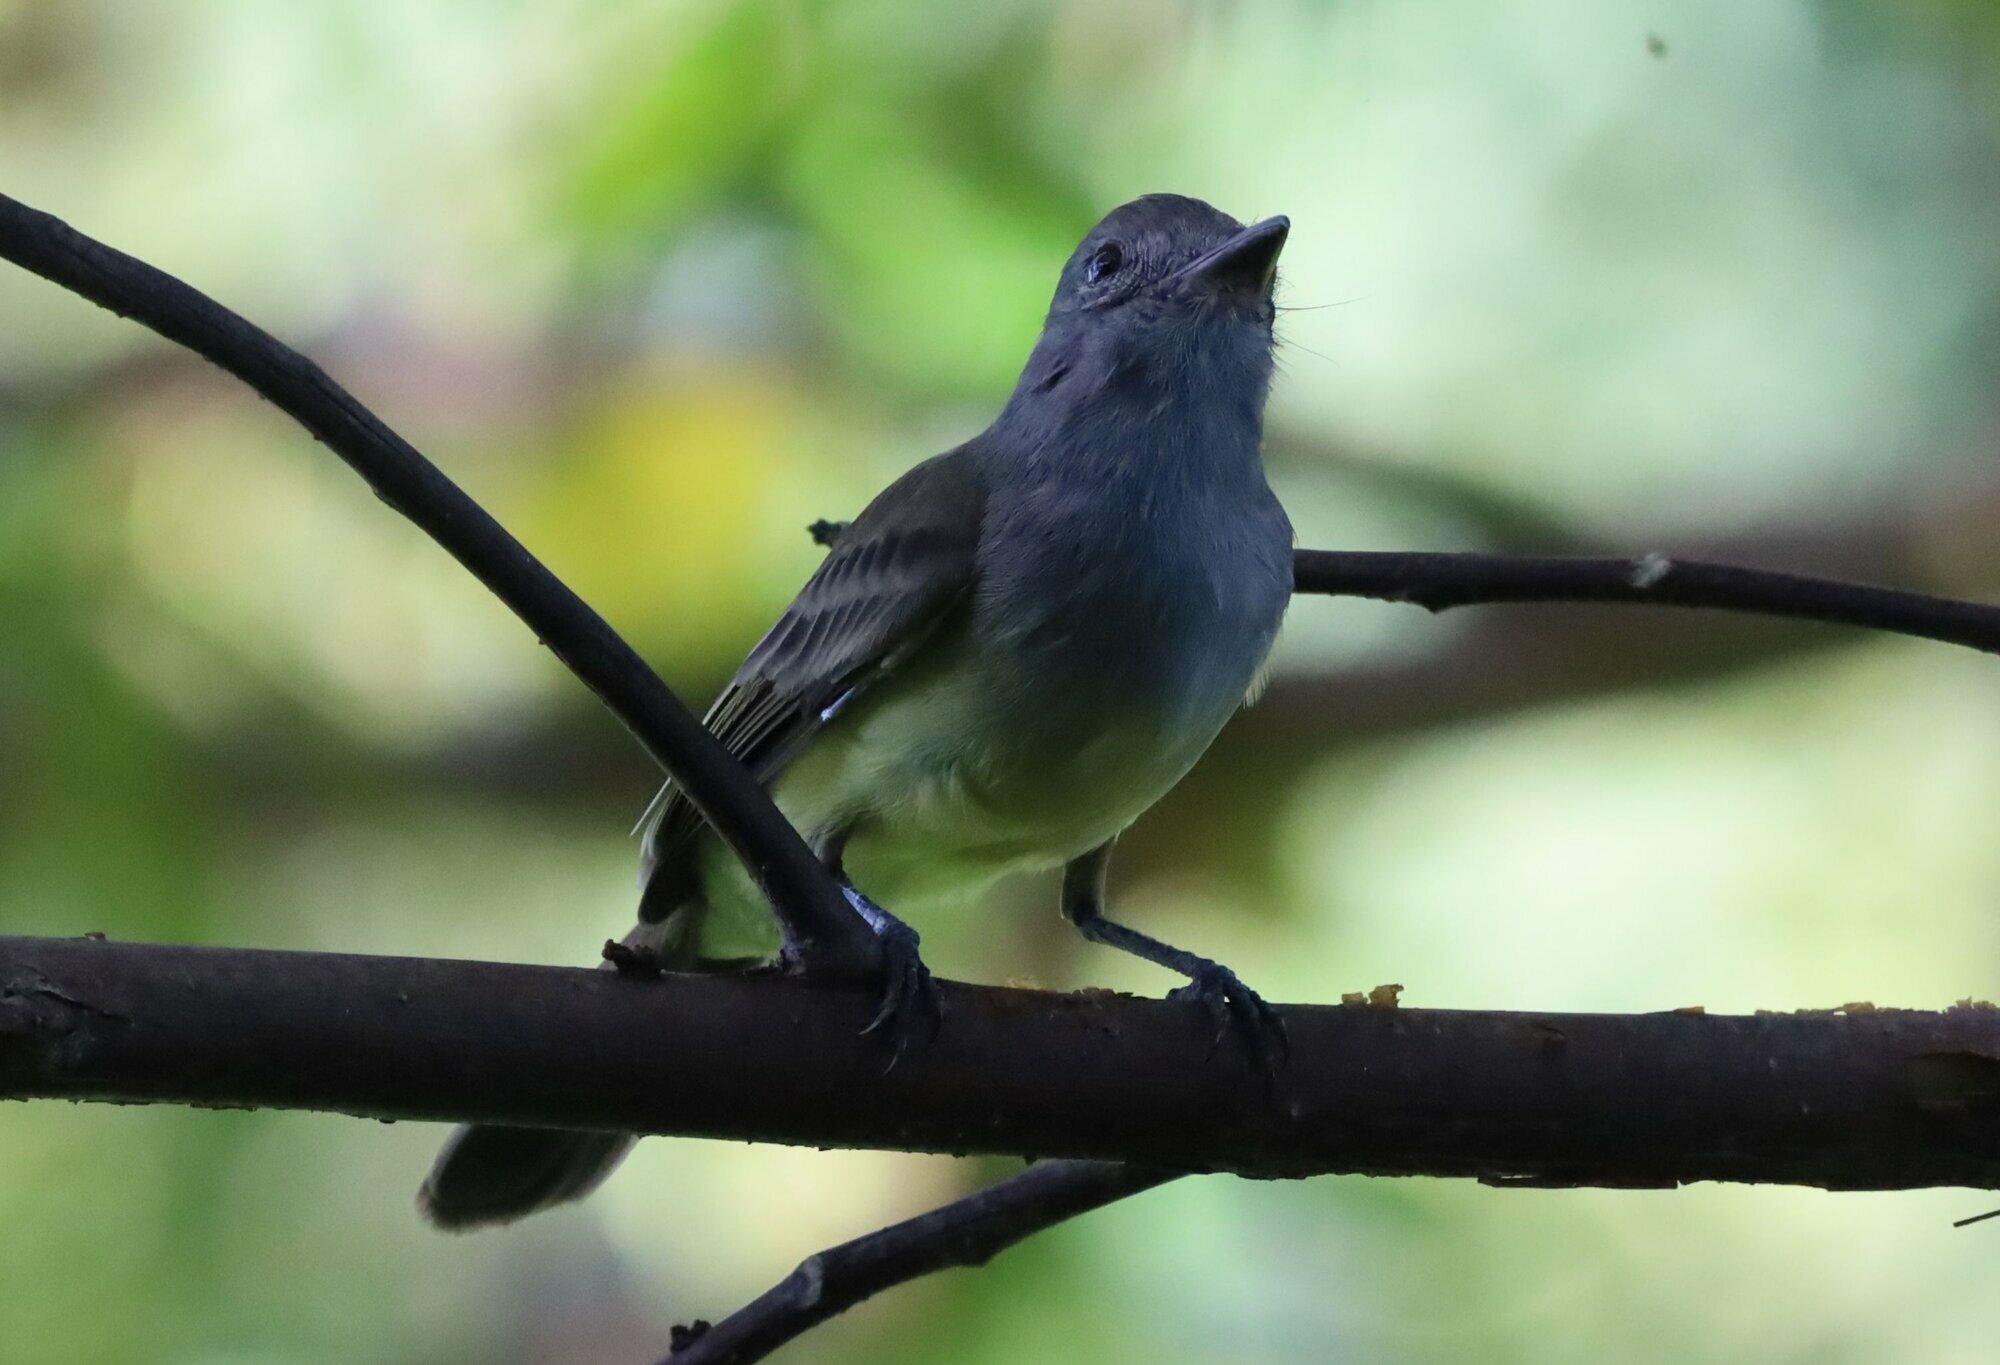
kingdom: Animalia
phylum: Chordata
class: Aves
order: Passeriformes
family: Tyrannidae
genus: Myiarchus
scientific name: Myiarchus panamensis
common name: Panama flycatcher
